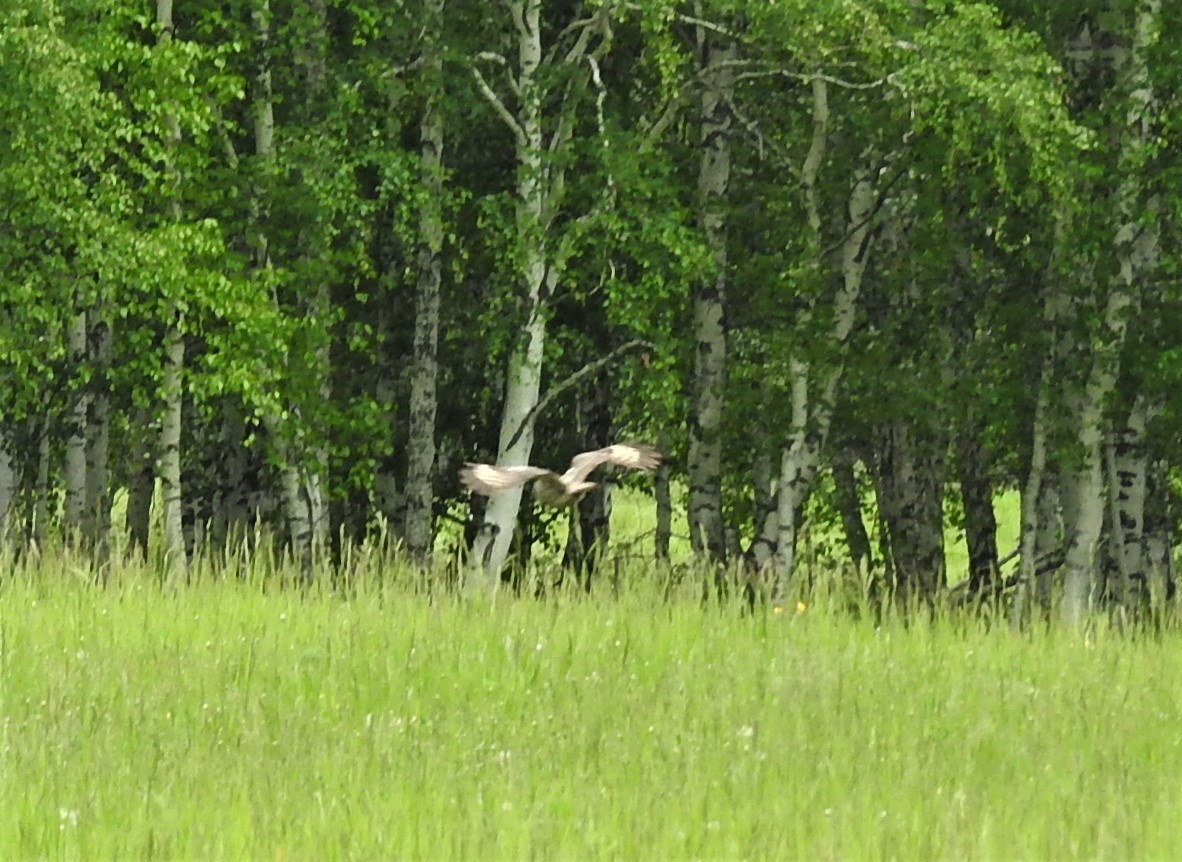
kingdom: Animalia
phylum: Chordata
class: Aves
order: Strigiformes
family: Strigidae
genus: Strix
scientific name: Strix nebulosa
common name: Great grey owl
